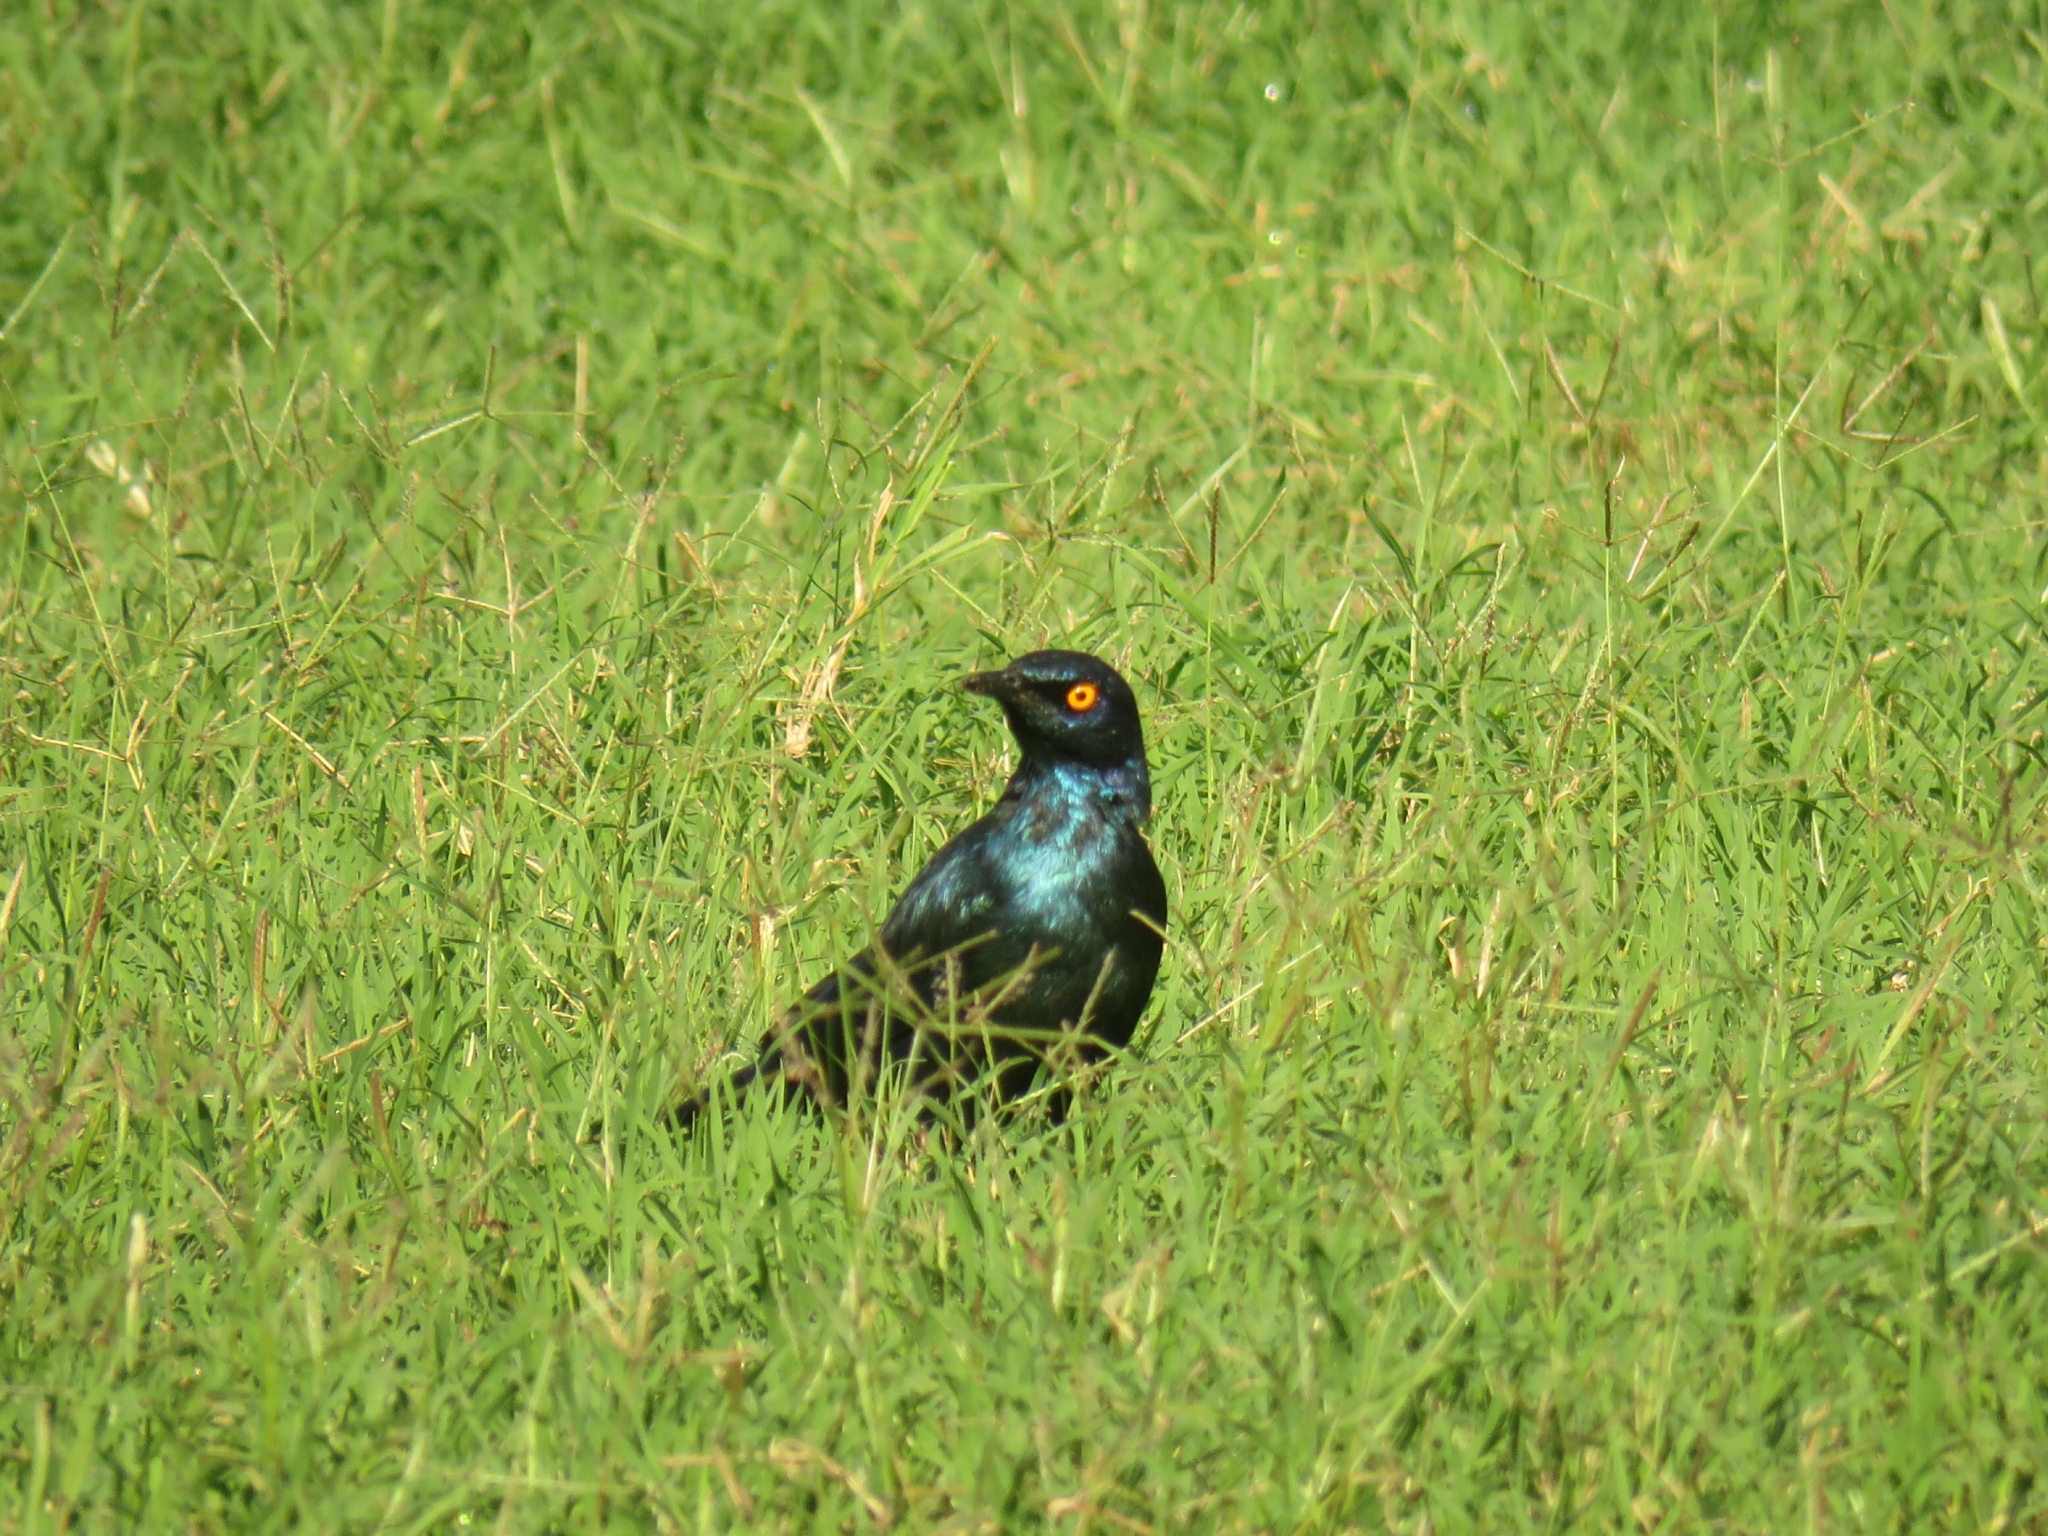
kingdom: Animalia
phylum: Chordata
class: Aves
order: Passeriformes
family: Sturnidae
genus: Lamprotornis
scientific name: Lamprotornis nitens
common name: Cape starling
